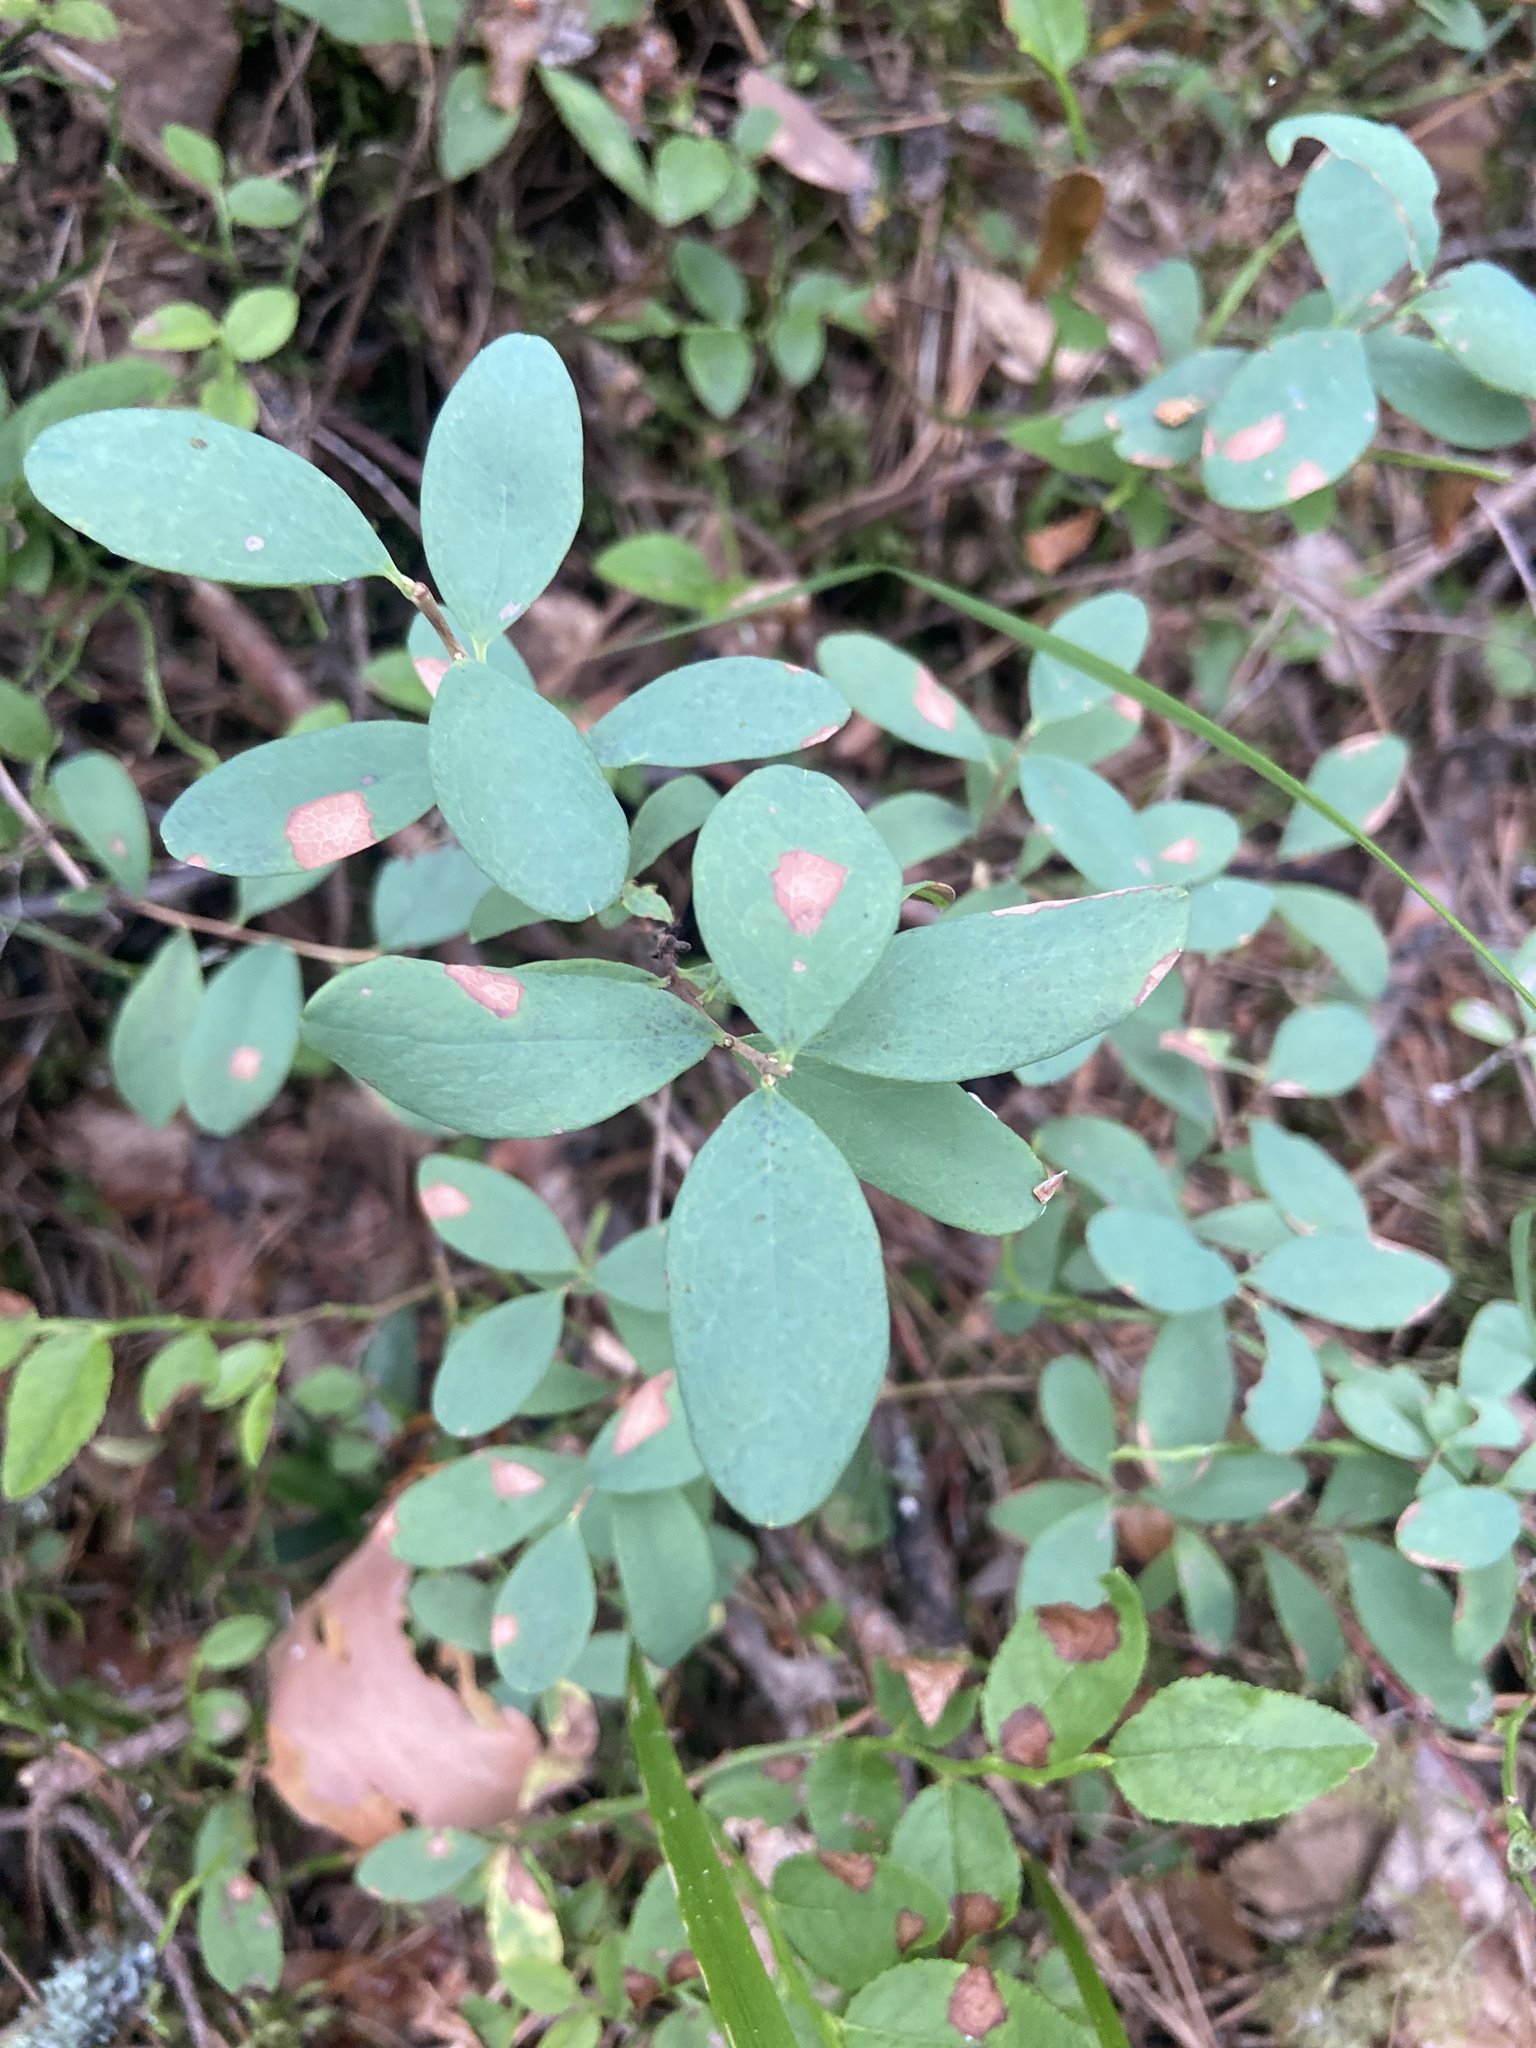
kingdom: Plantae
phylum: Tracheophyta
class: Magnoliopsida
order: Ericales
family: Ericaceae
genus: Vaccinium
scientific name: Vaccinium uliginosum
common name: Bog bilberry
